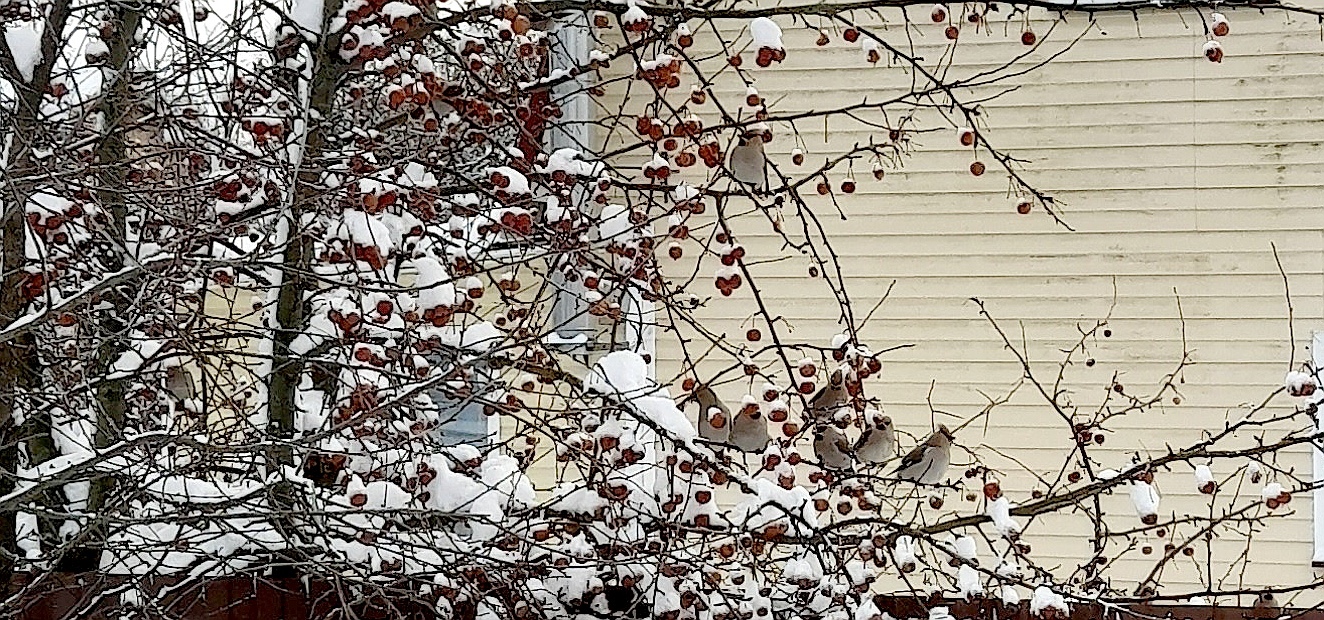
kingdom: Animalia
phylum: Chordata
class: Aves
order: Passeriformes
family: Bombycillidae
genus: Bombycilla
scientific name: Bombycilla garrulus
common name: Bohemian waxwing
